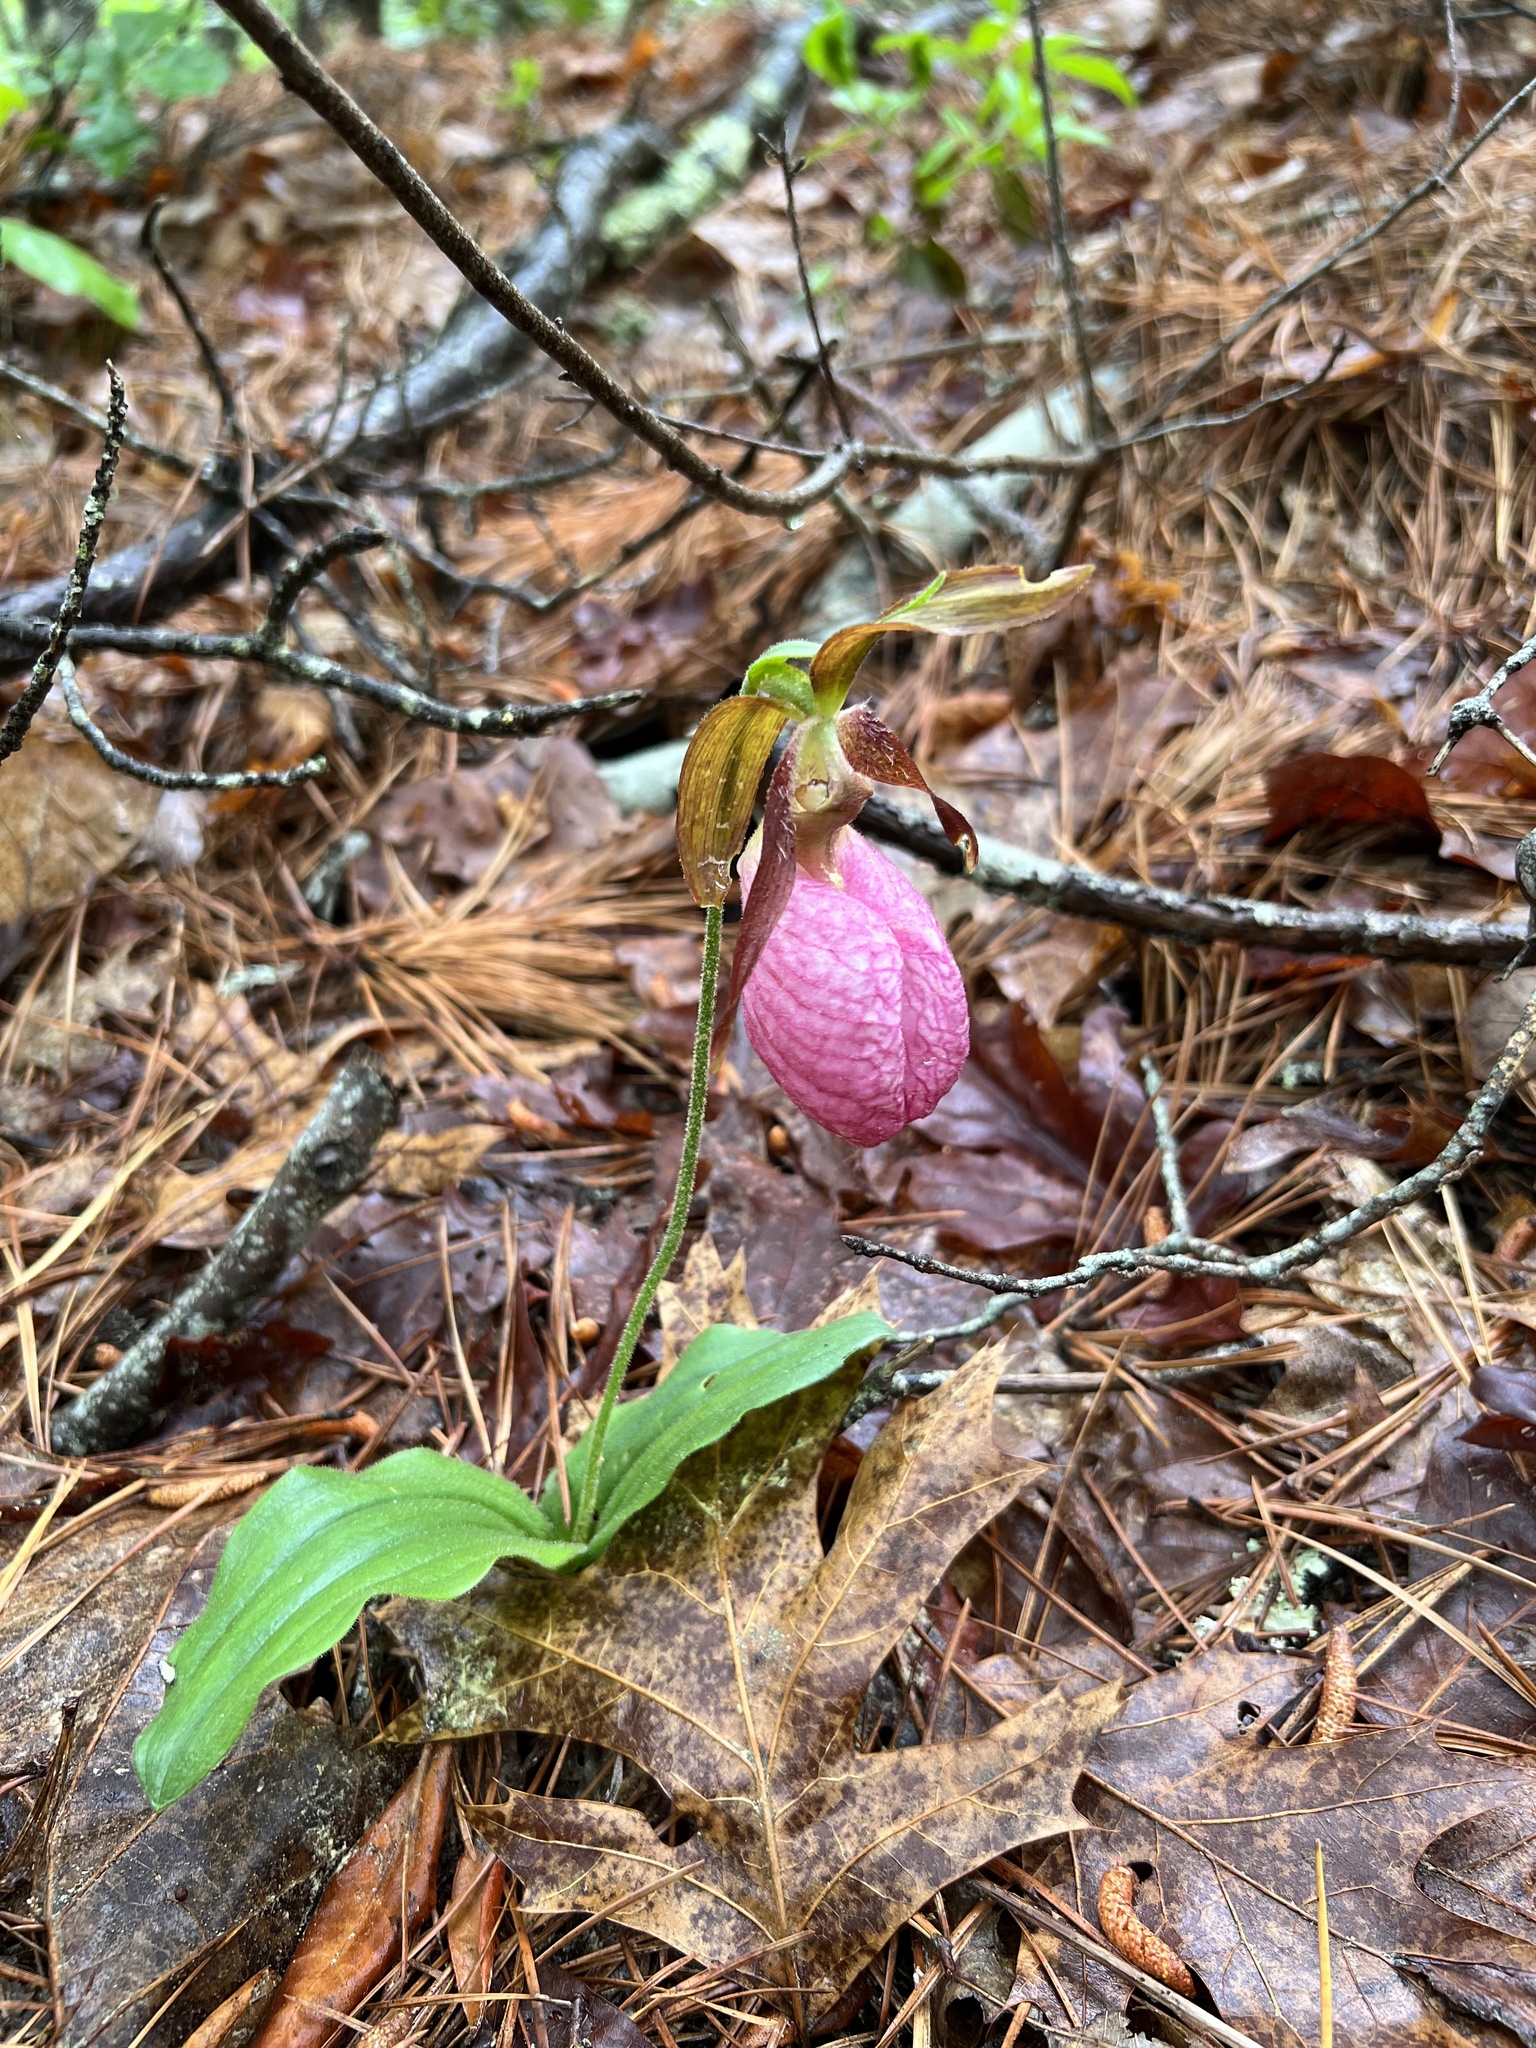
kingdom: Plantae
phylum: Tracheophyta
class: Liliopsida
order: Asparagales
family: Orchidaceae
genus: Cypripedium
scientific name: Cypripedium acaule
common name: Pink lady's-slipper
